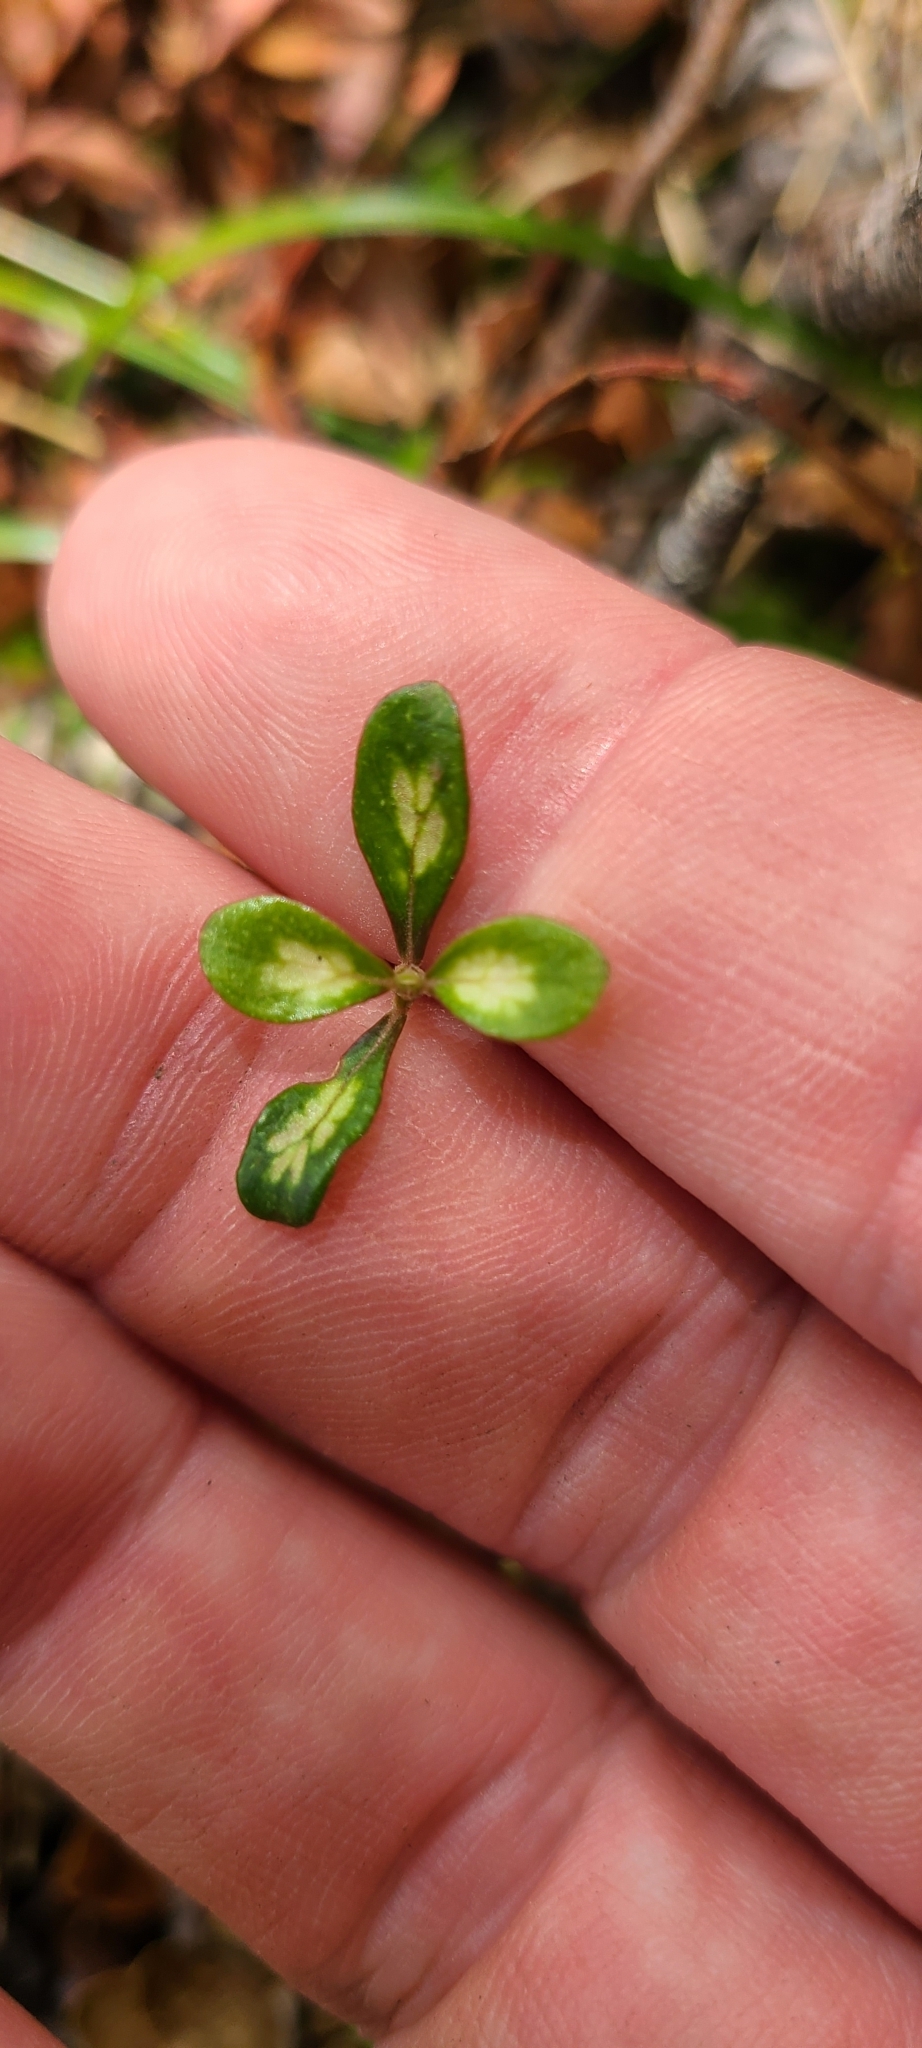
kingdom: Plantae
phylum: Tracheophyta
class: Magnoliopsida
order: Gentianales
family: Rubiaceae
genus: Coprosma
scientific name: Coprosma propinqua
